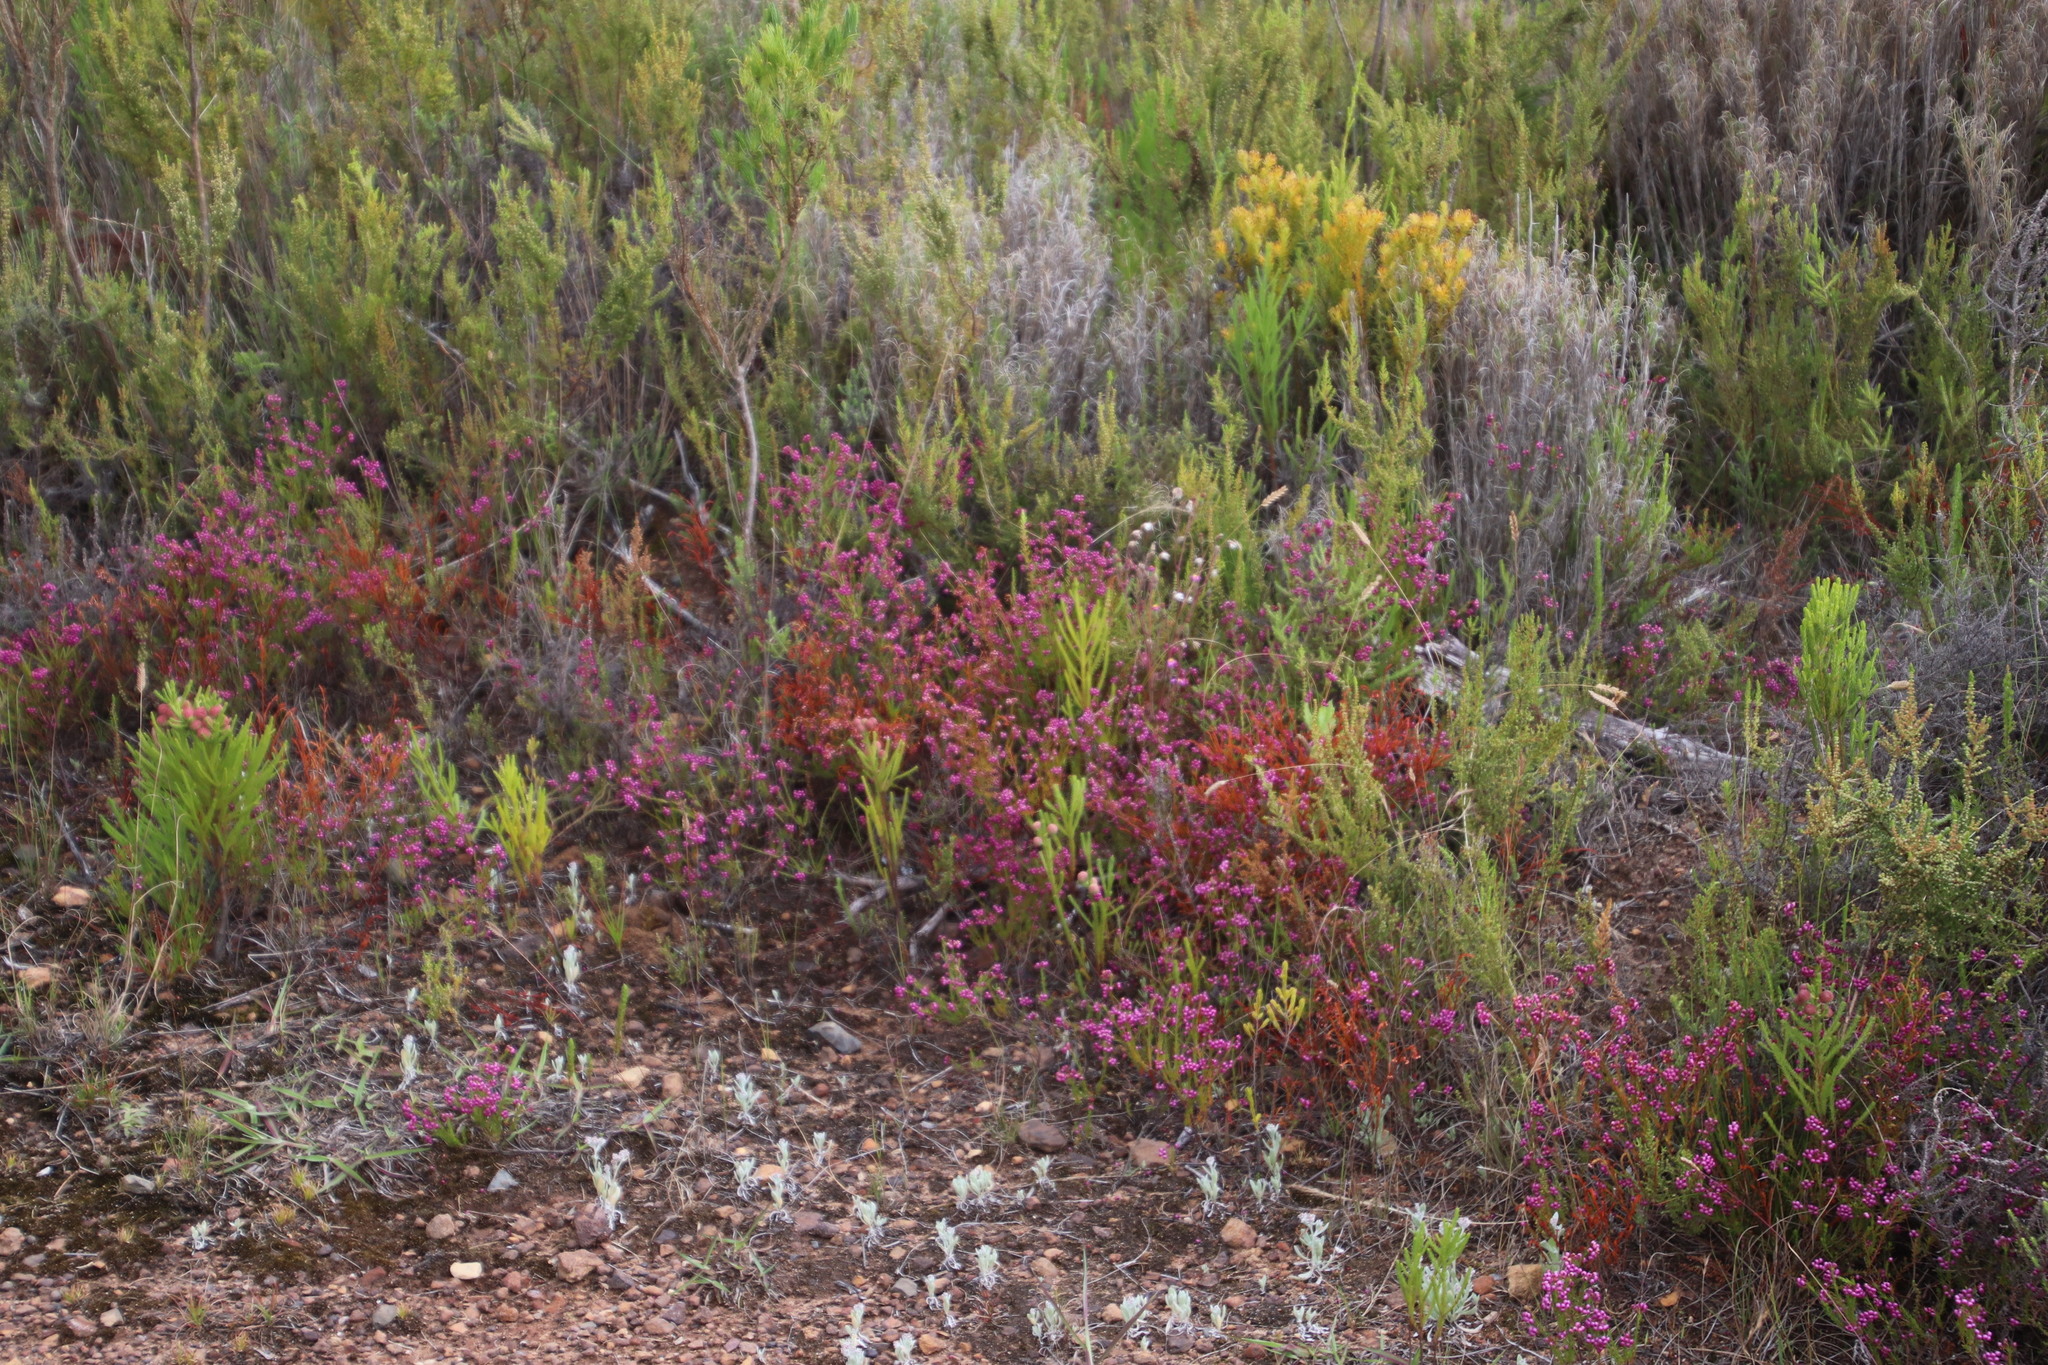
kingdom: Plantae
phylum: Tracheophyta
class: Magnoliopsida
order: Ericales
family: Ericaceae
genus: Erica
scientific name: Erica multumbellifera
